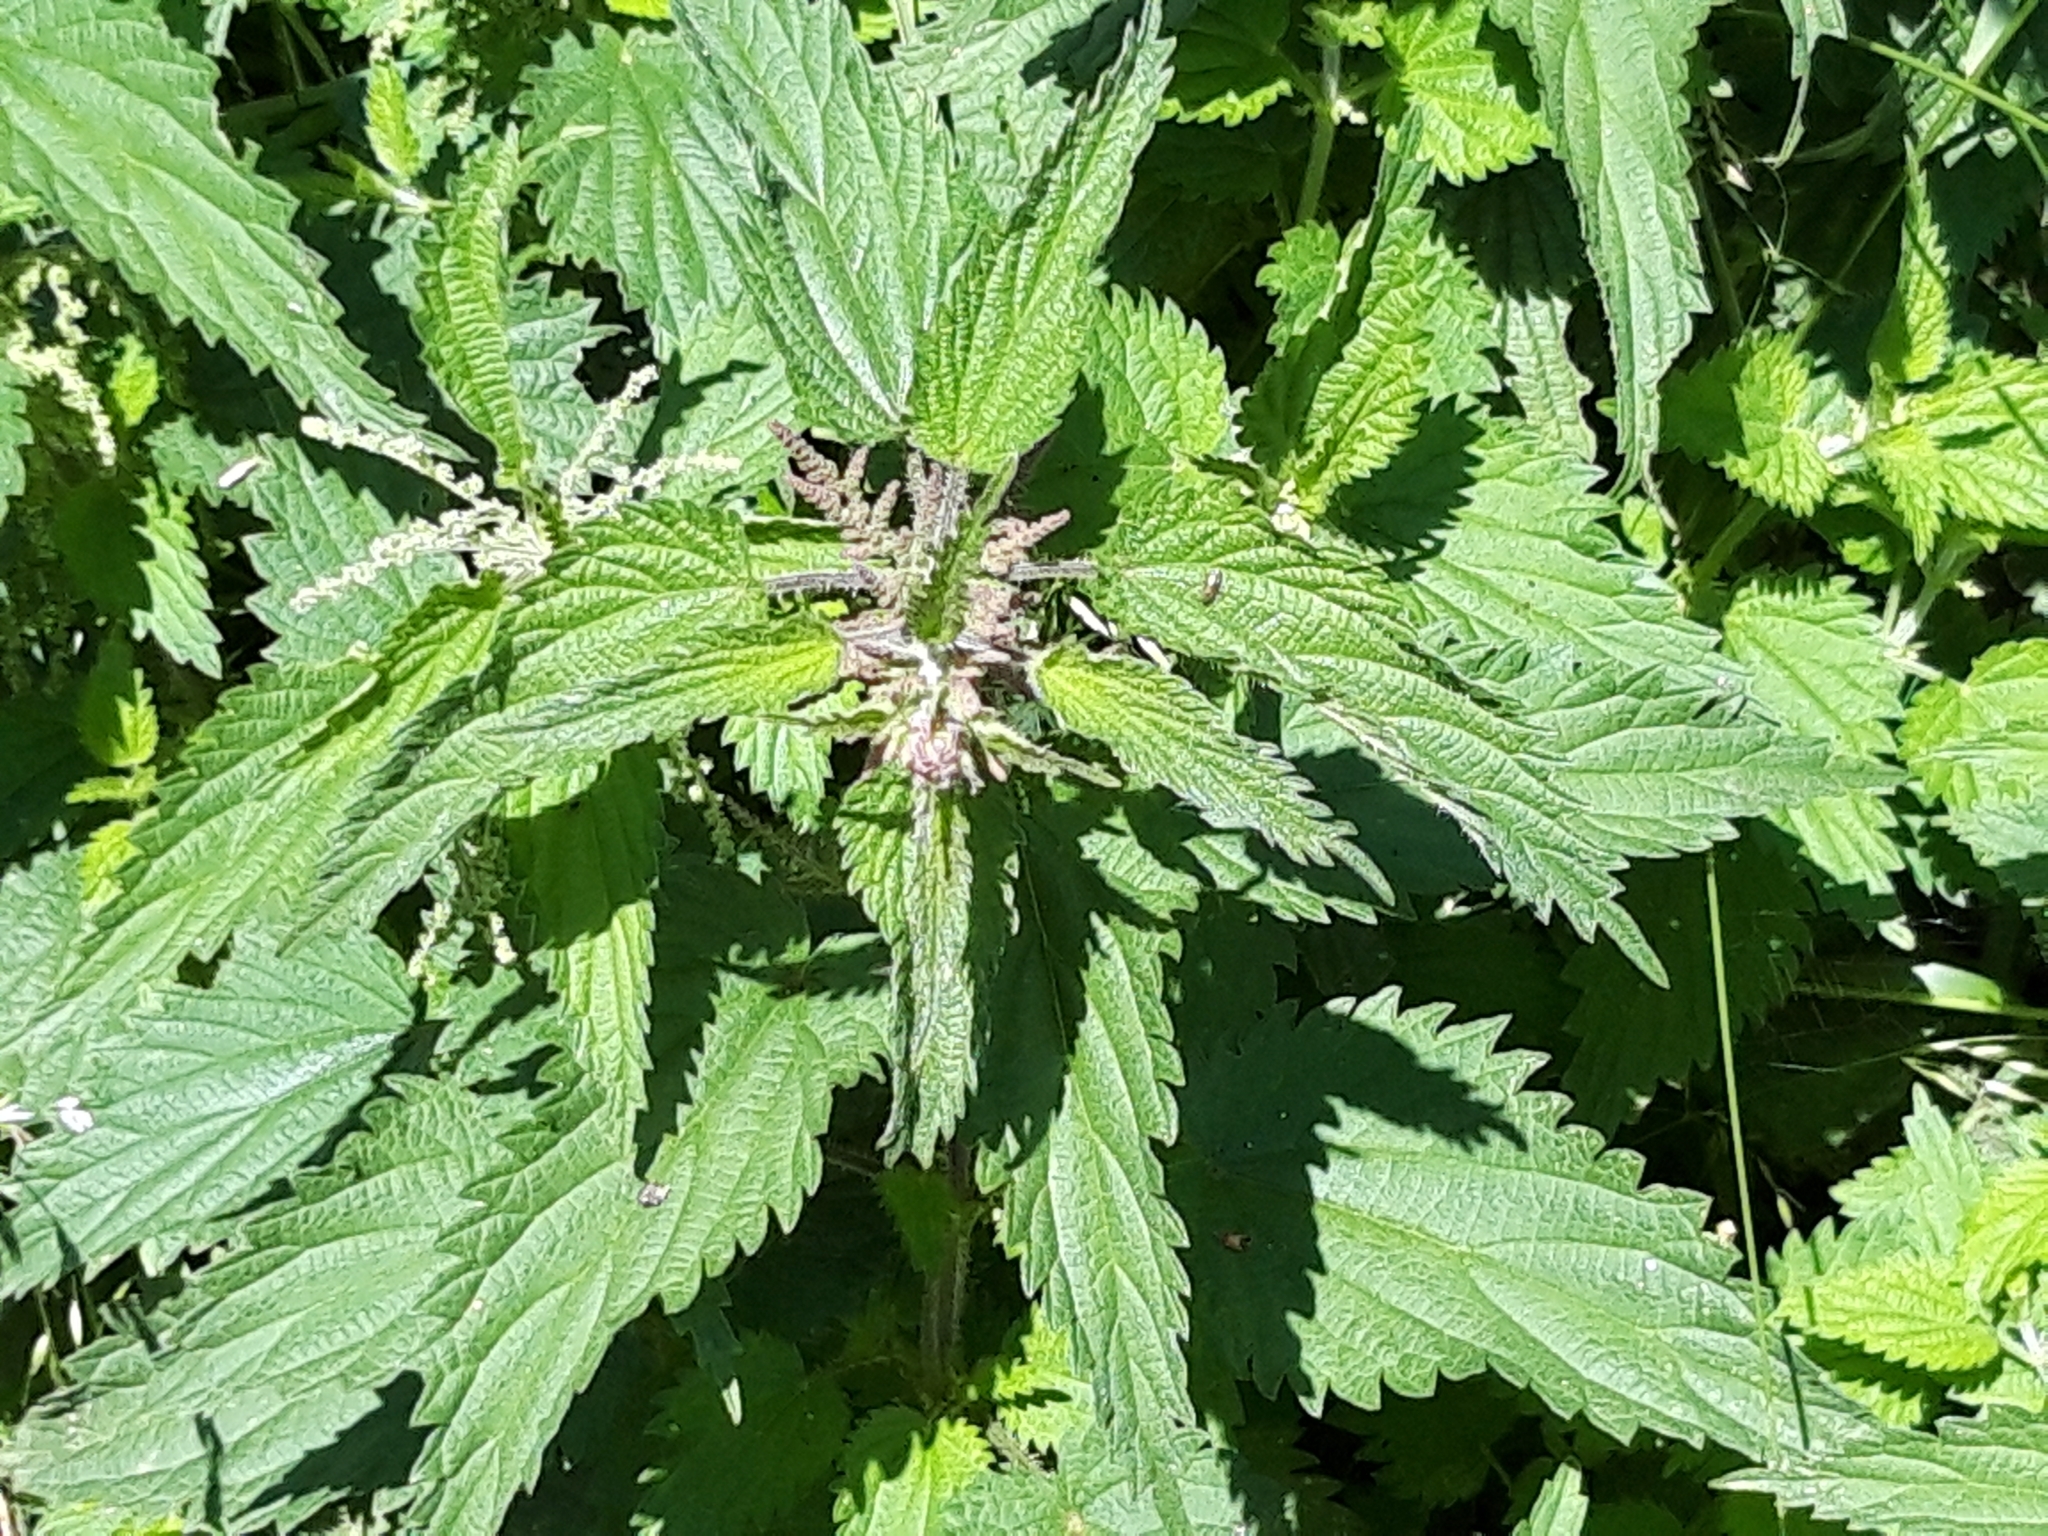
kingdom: Plantae
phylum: Tracheophyta
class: Magnoliopsida
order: Rosales
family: Urticaceae
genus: Urtica
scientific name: Urtica dioica
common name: Common nettle
